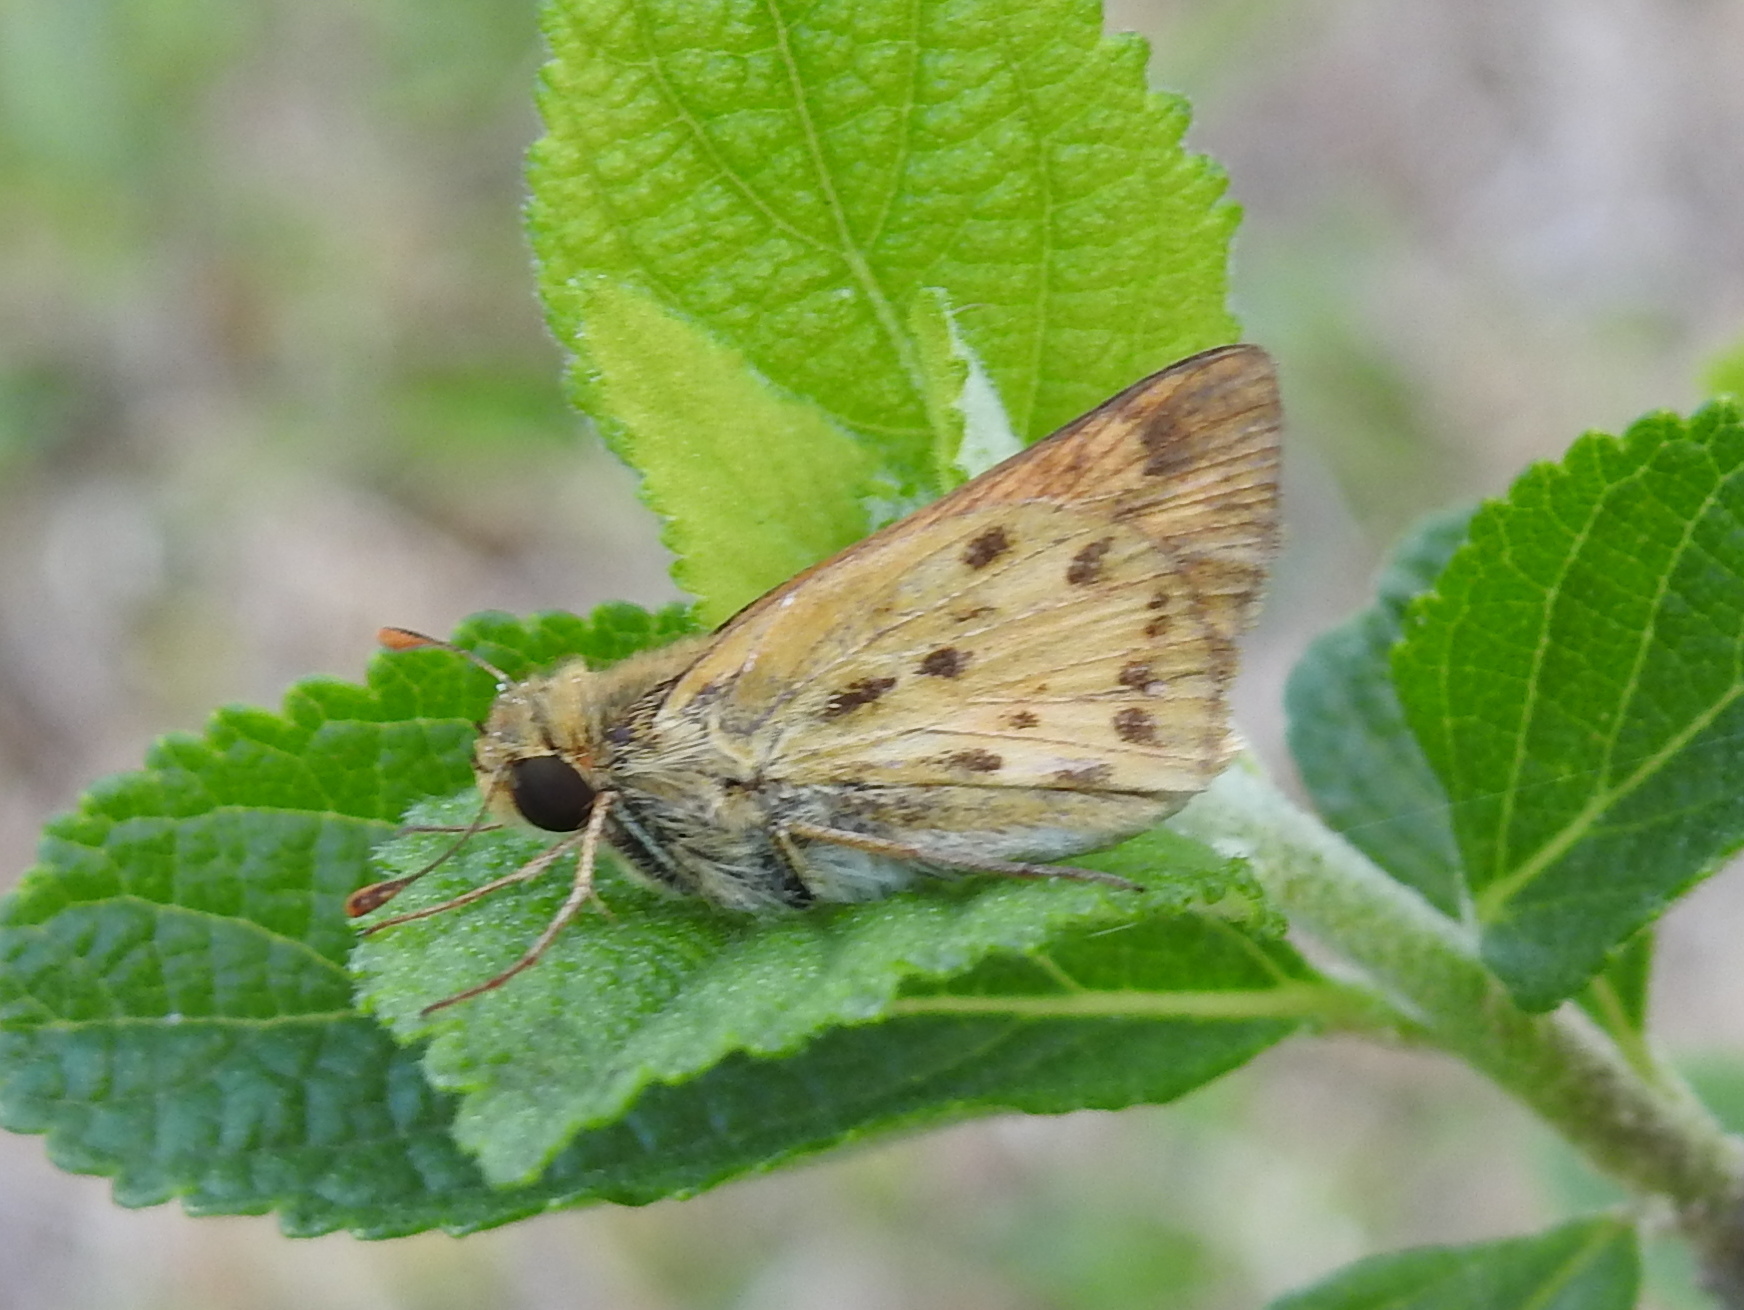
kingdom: Animalia
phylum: Arthropoda
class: Insecta
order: Lepidoptera
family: Hesperiidae
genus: Hylephila
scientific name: Hylephila phyleus
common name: Fiery skipper
